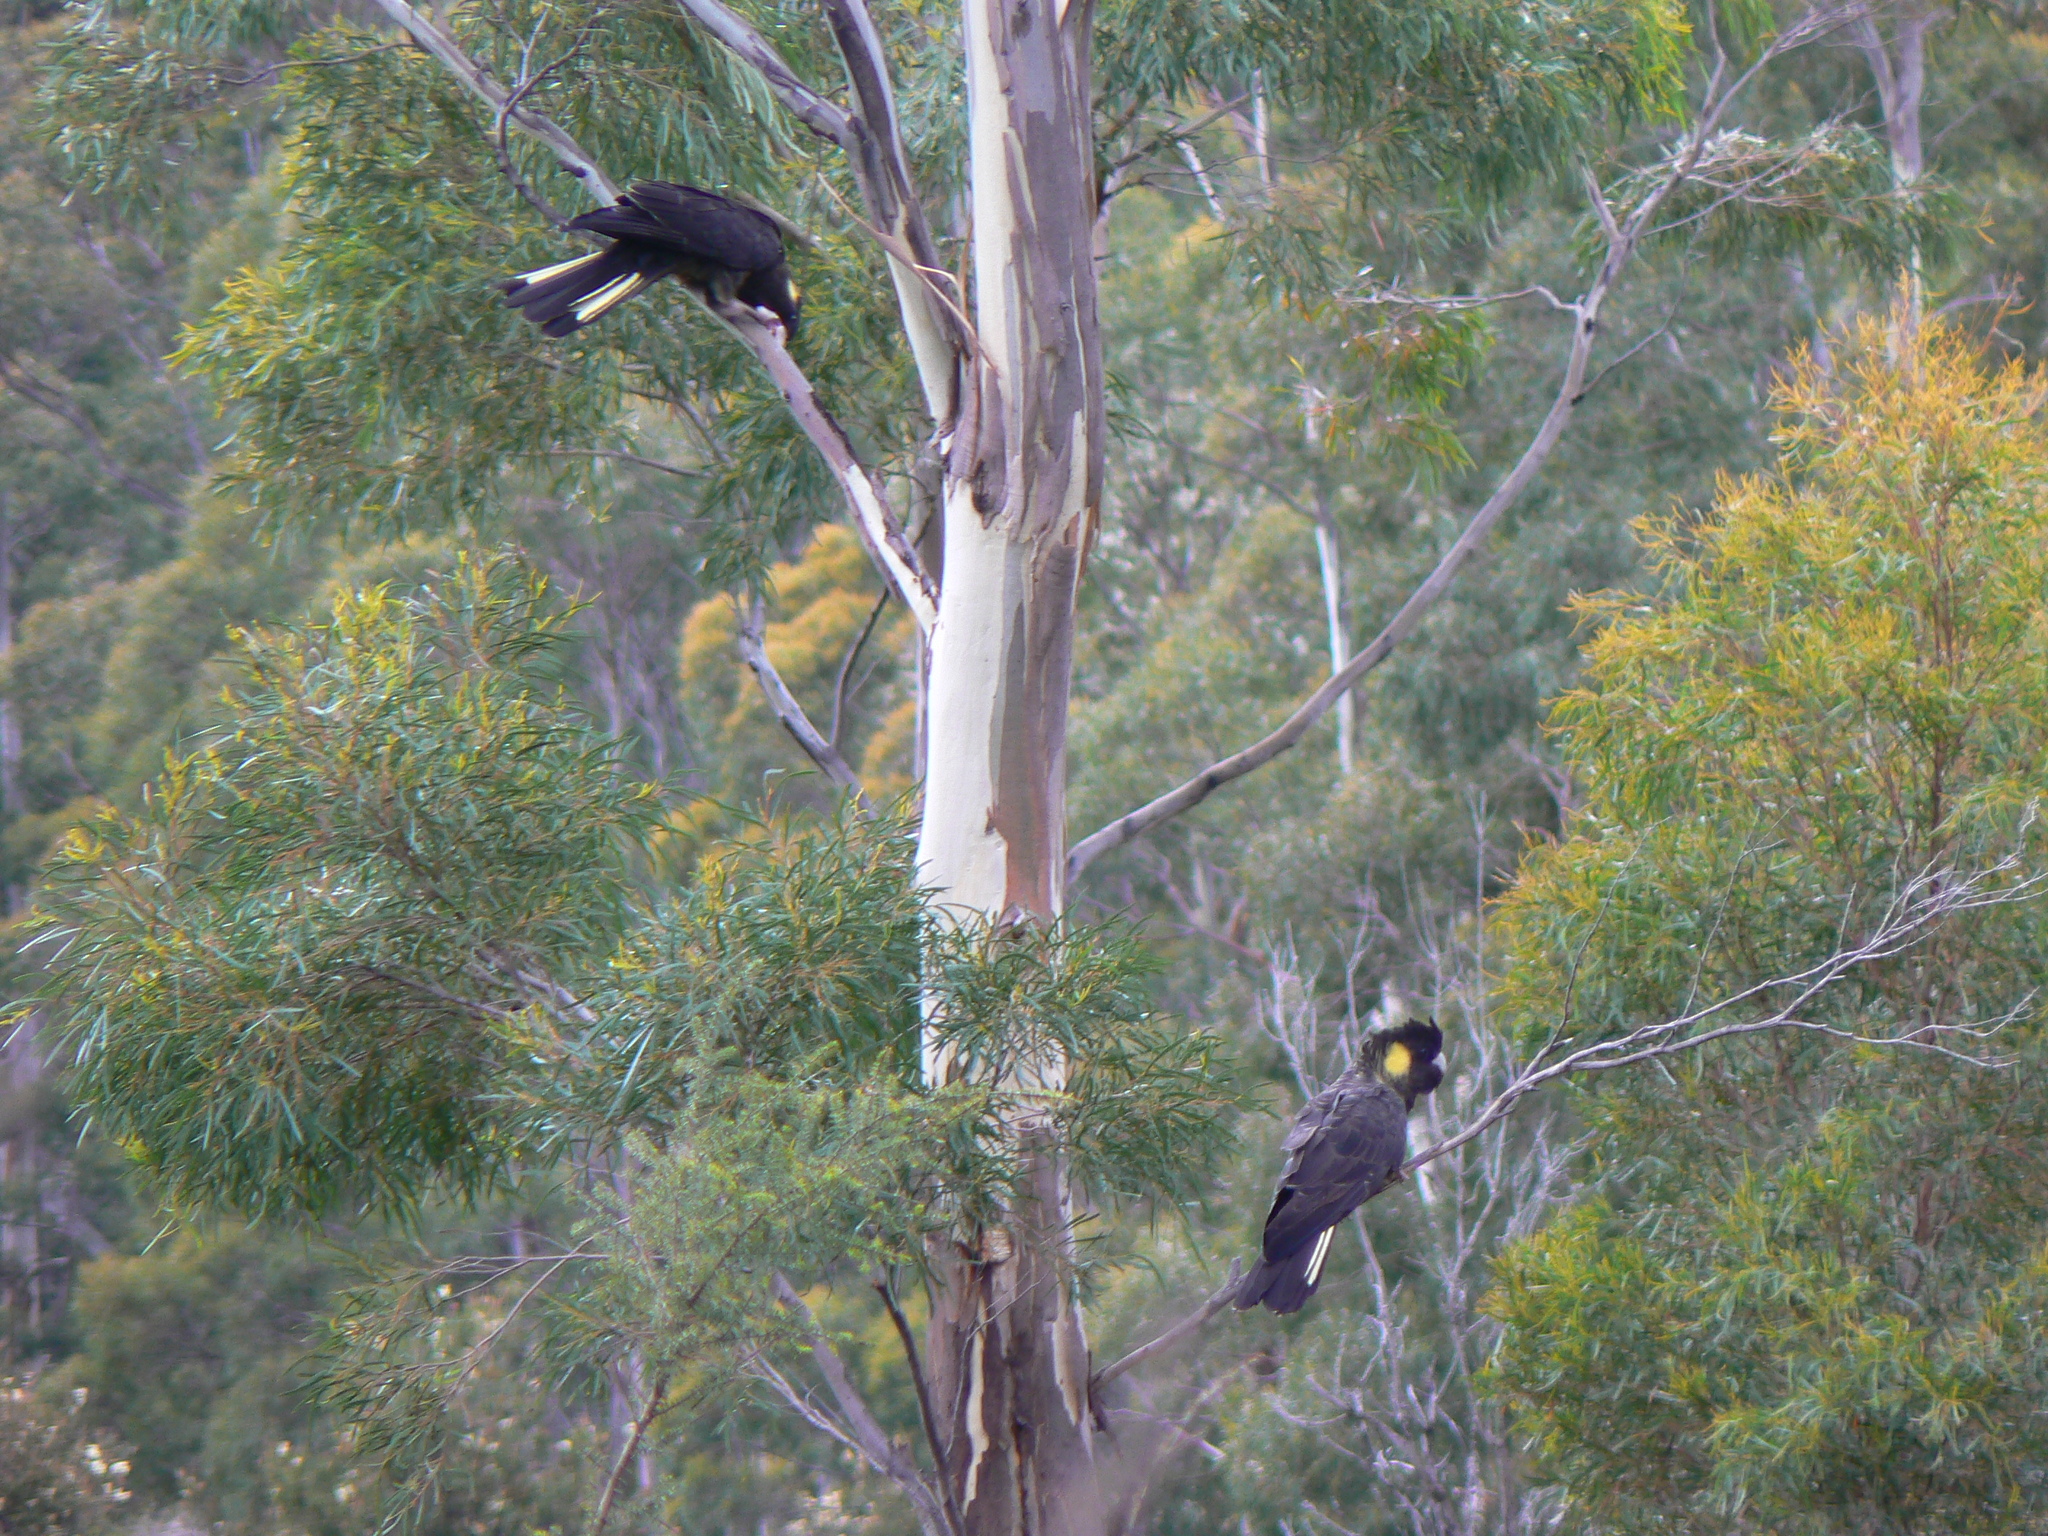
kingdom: Animalia
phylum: Chordata
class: Aves
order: Psittaciformes
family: Cacatuidae
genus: Zanda
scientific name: Zanda funerea
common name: Yellow-tailed black-cockatoo
